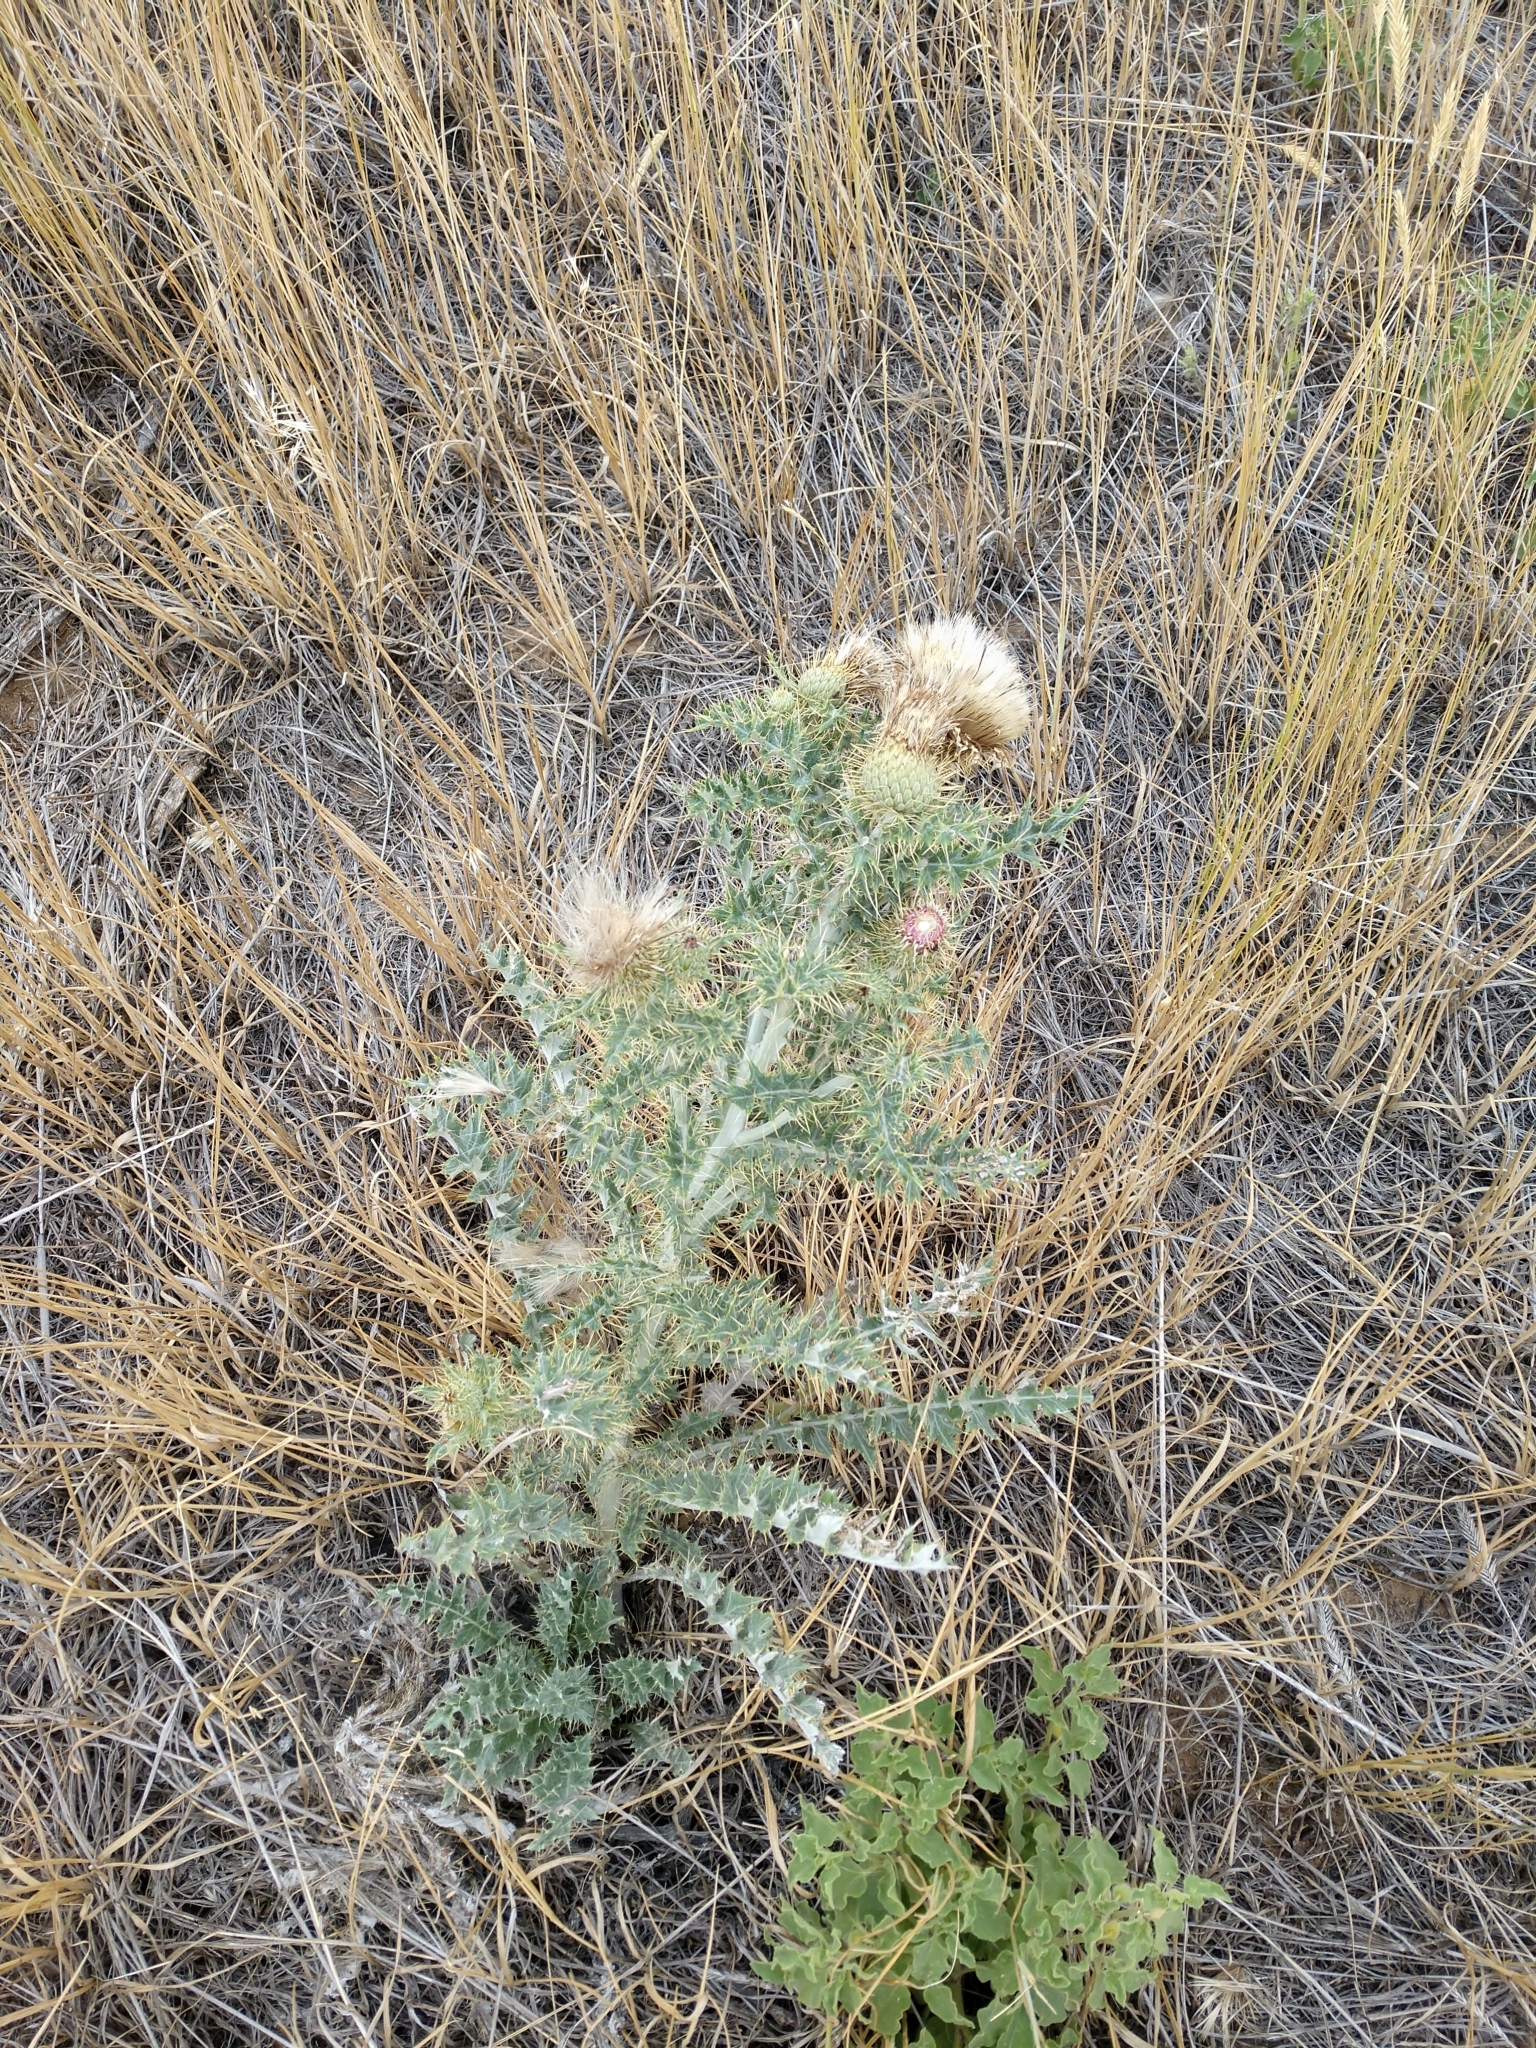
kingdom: Plantae
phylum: Tracheophyta
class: Magnoliopsida
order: Asterales
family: Asteraceae
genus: Cirsium
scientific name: Cirsium ochrocentrum
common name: Yellow-spine thistle
